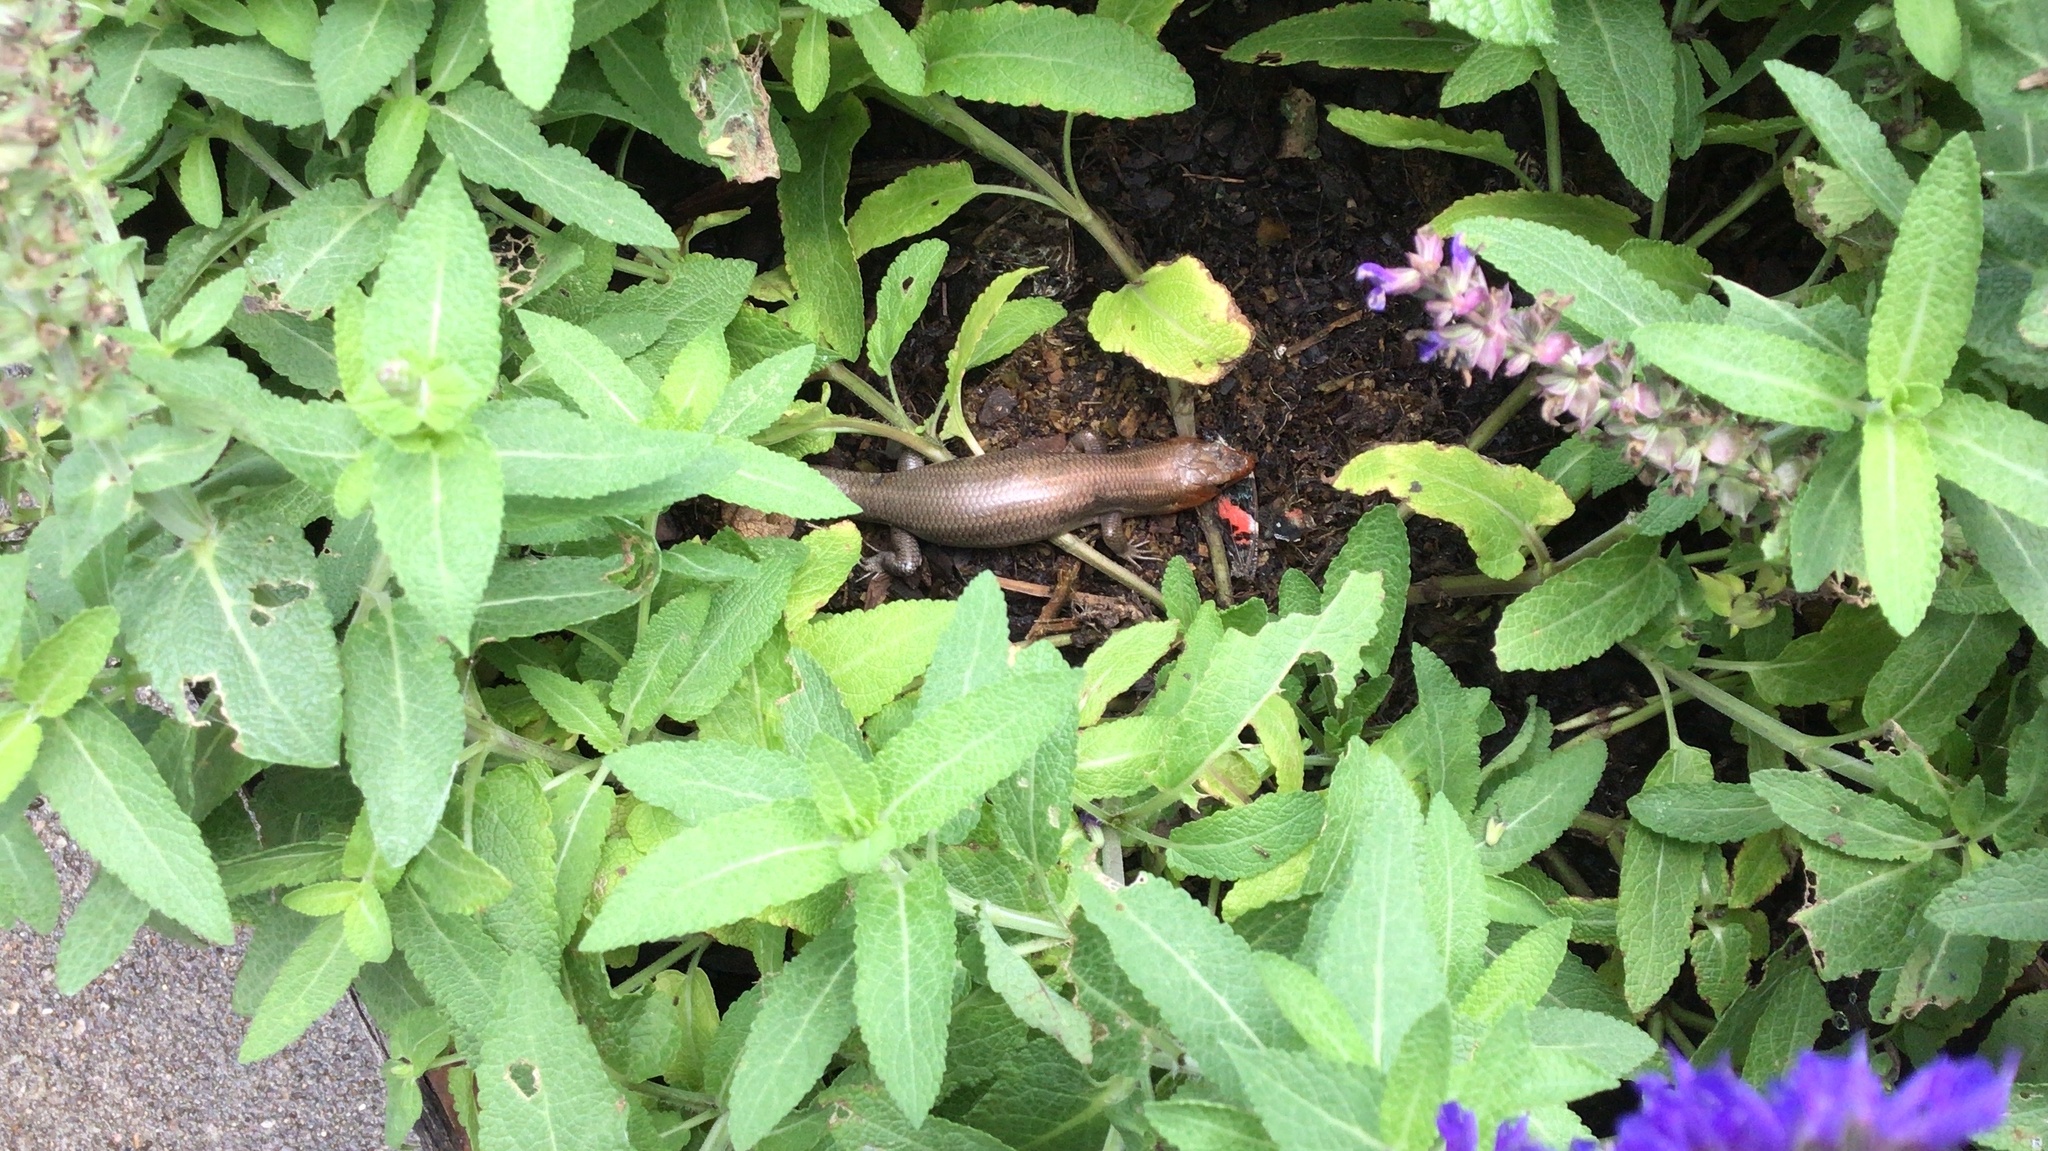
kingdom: Animalia
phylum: Chordata
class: Squamata
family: Scincidae
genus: Plestiodon
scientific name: Plestiodon laticeps
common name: Broadhead skink
